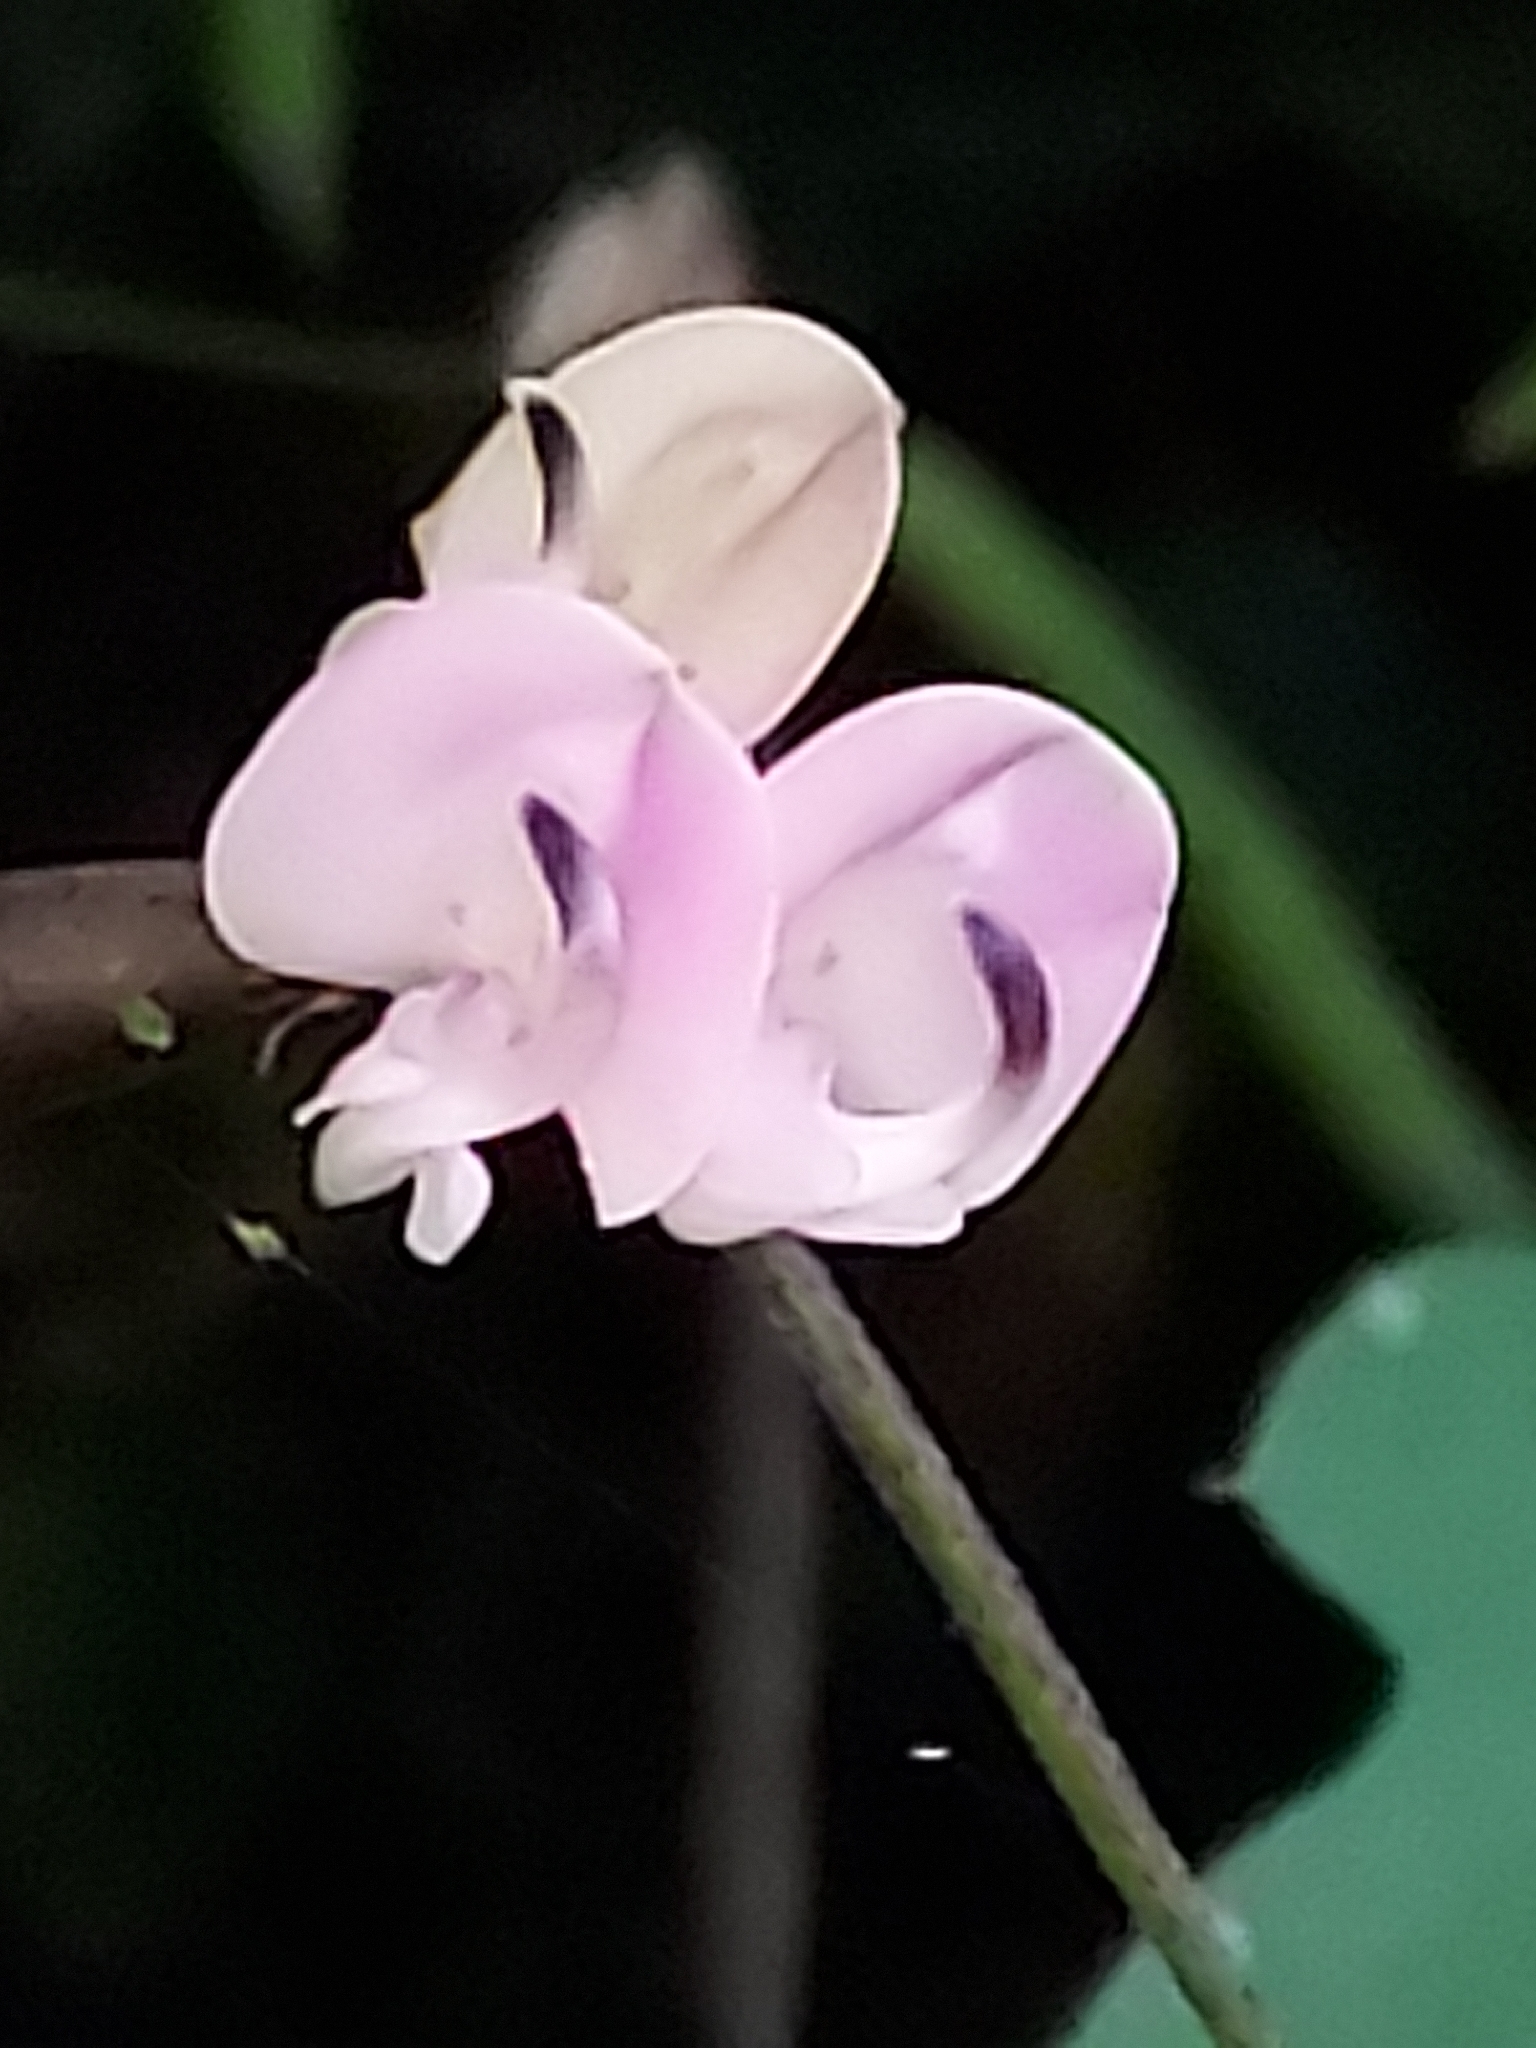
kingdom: Plantae
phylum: Tracheophyta
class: Magnoliopsida
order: Fabales
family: Fabaceae
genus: Strophostyles
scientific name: Strophostyles helvola
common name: Trailing wild bean
